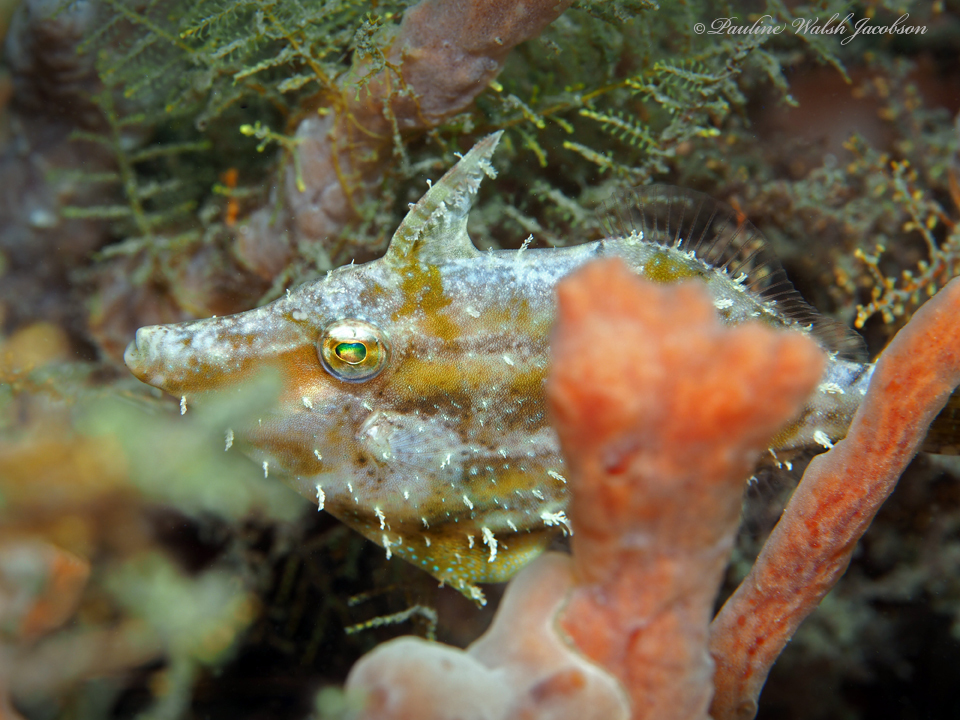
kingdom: Animalia
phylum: Chordata
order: Tetraodontiformes
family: Monacanthidae
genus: Monacanthus
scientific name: Monacanthus tuckeri
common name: Slender filefish
